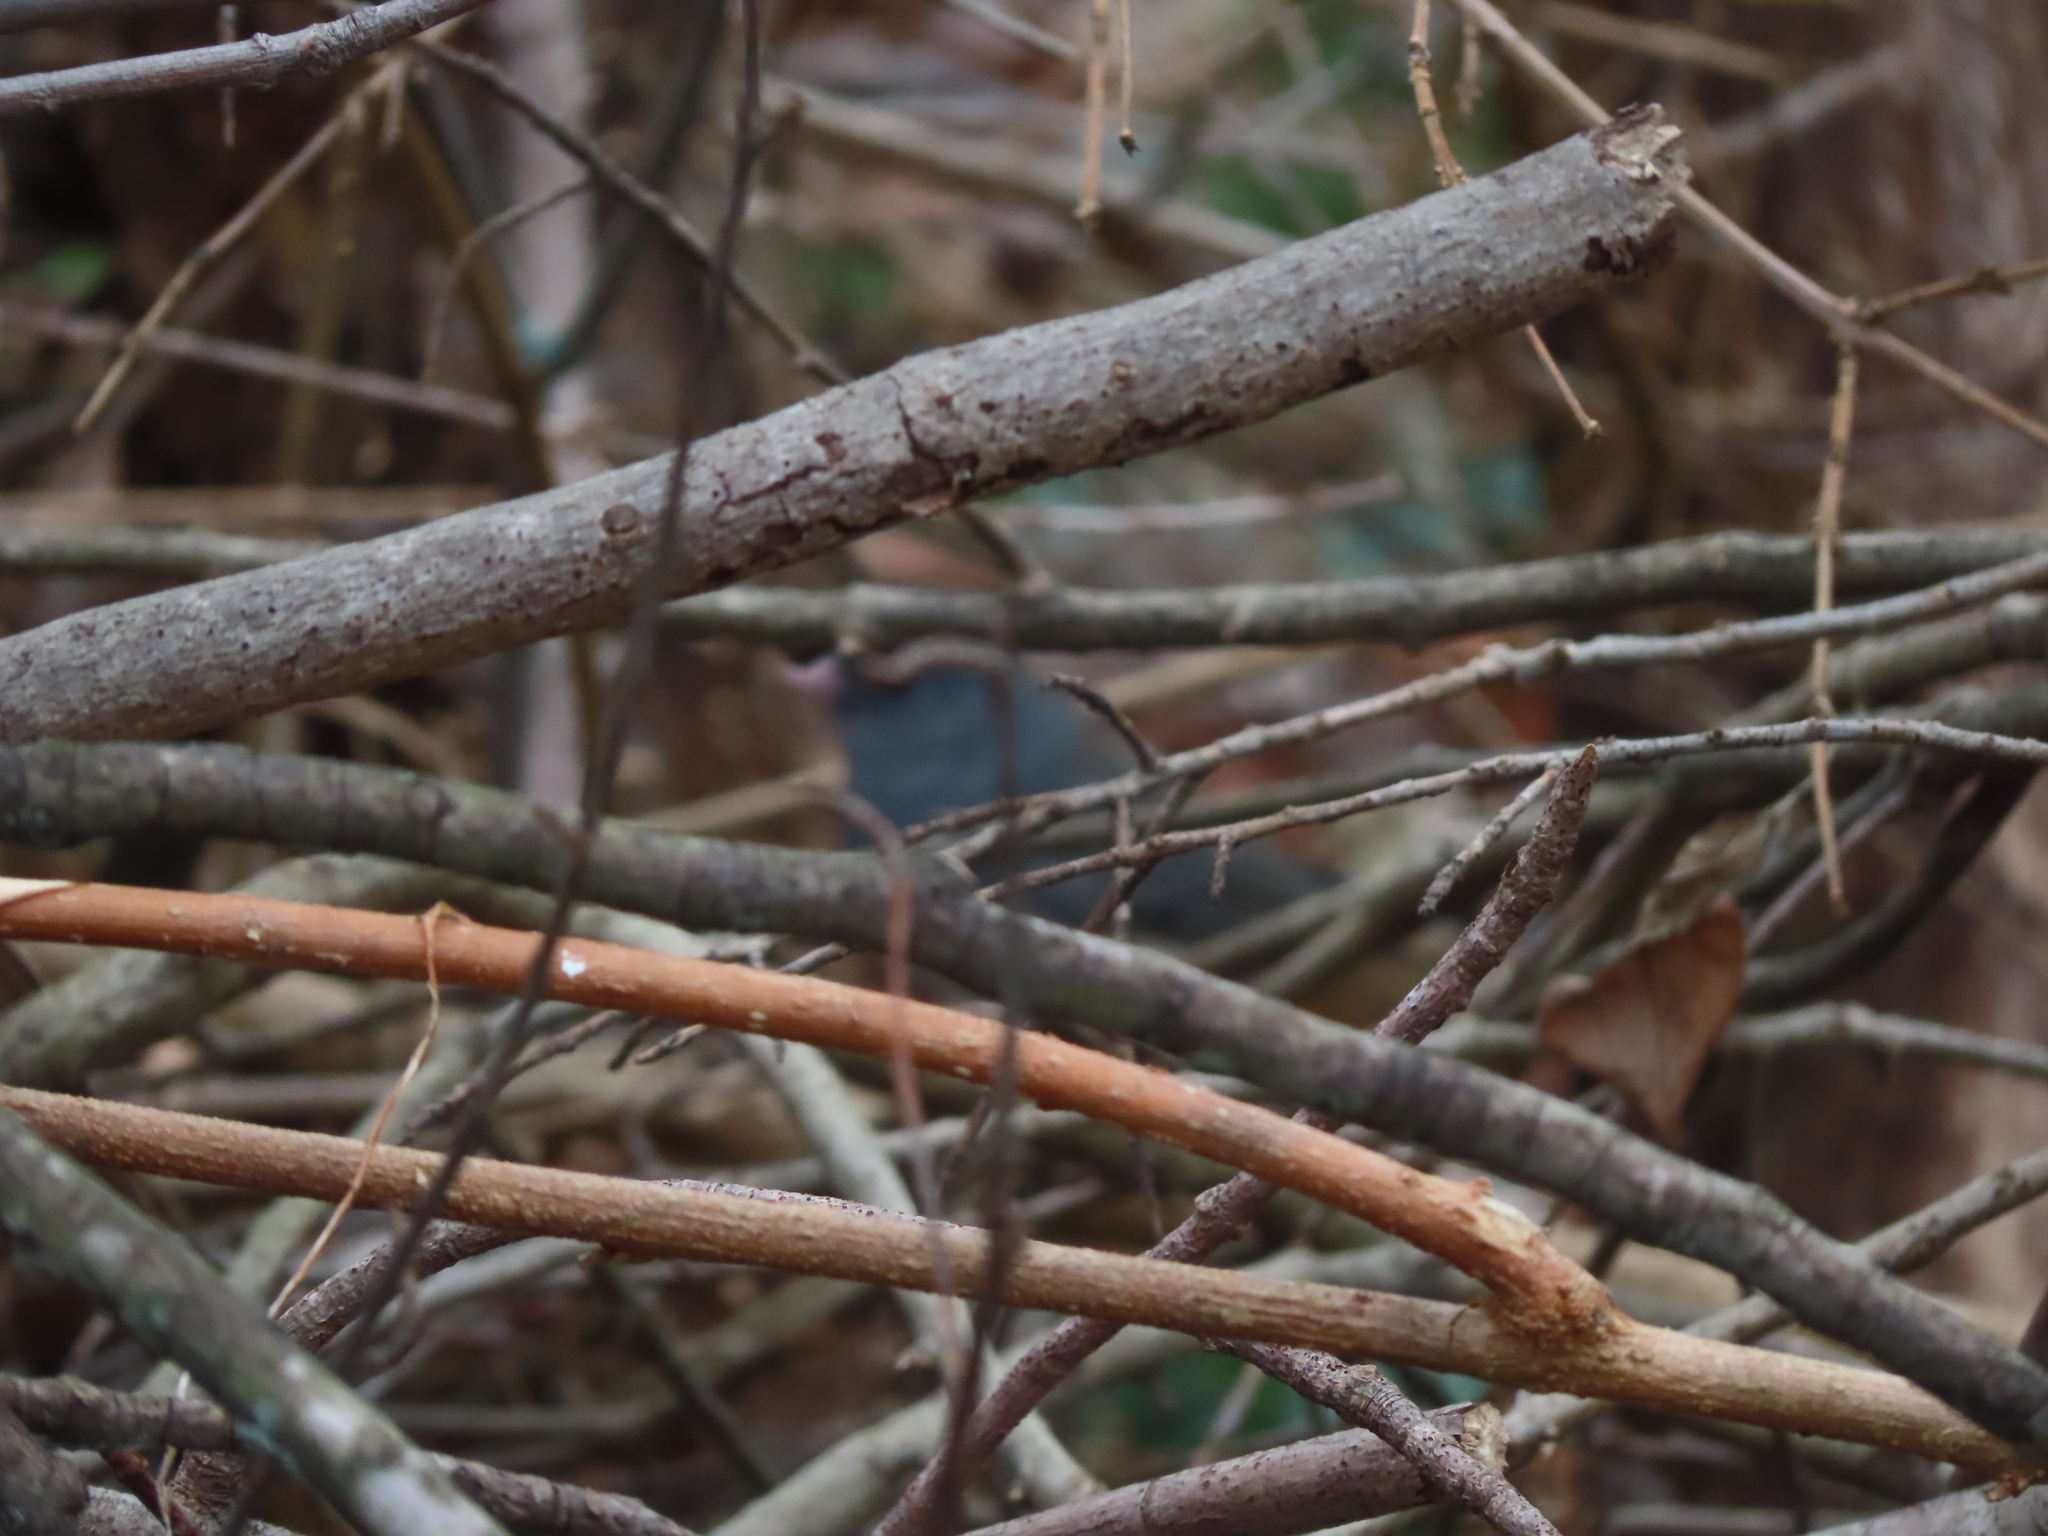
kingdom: Animalia
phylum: Chordata
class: Aves
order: Passeriformes
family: Passerellidae
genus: Junco
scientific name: Junco hyemalis
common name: Dark-eyed junco
